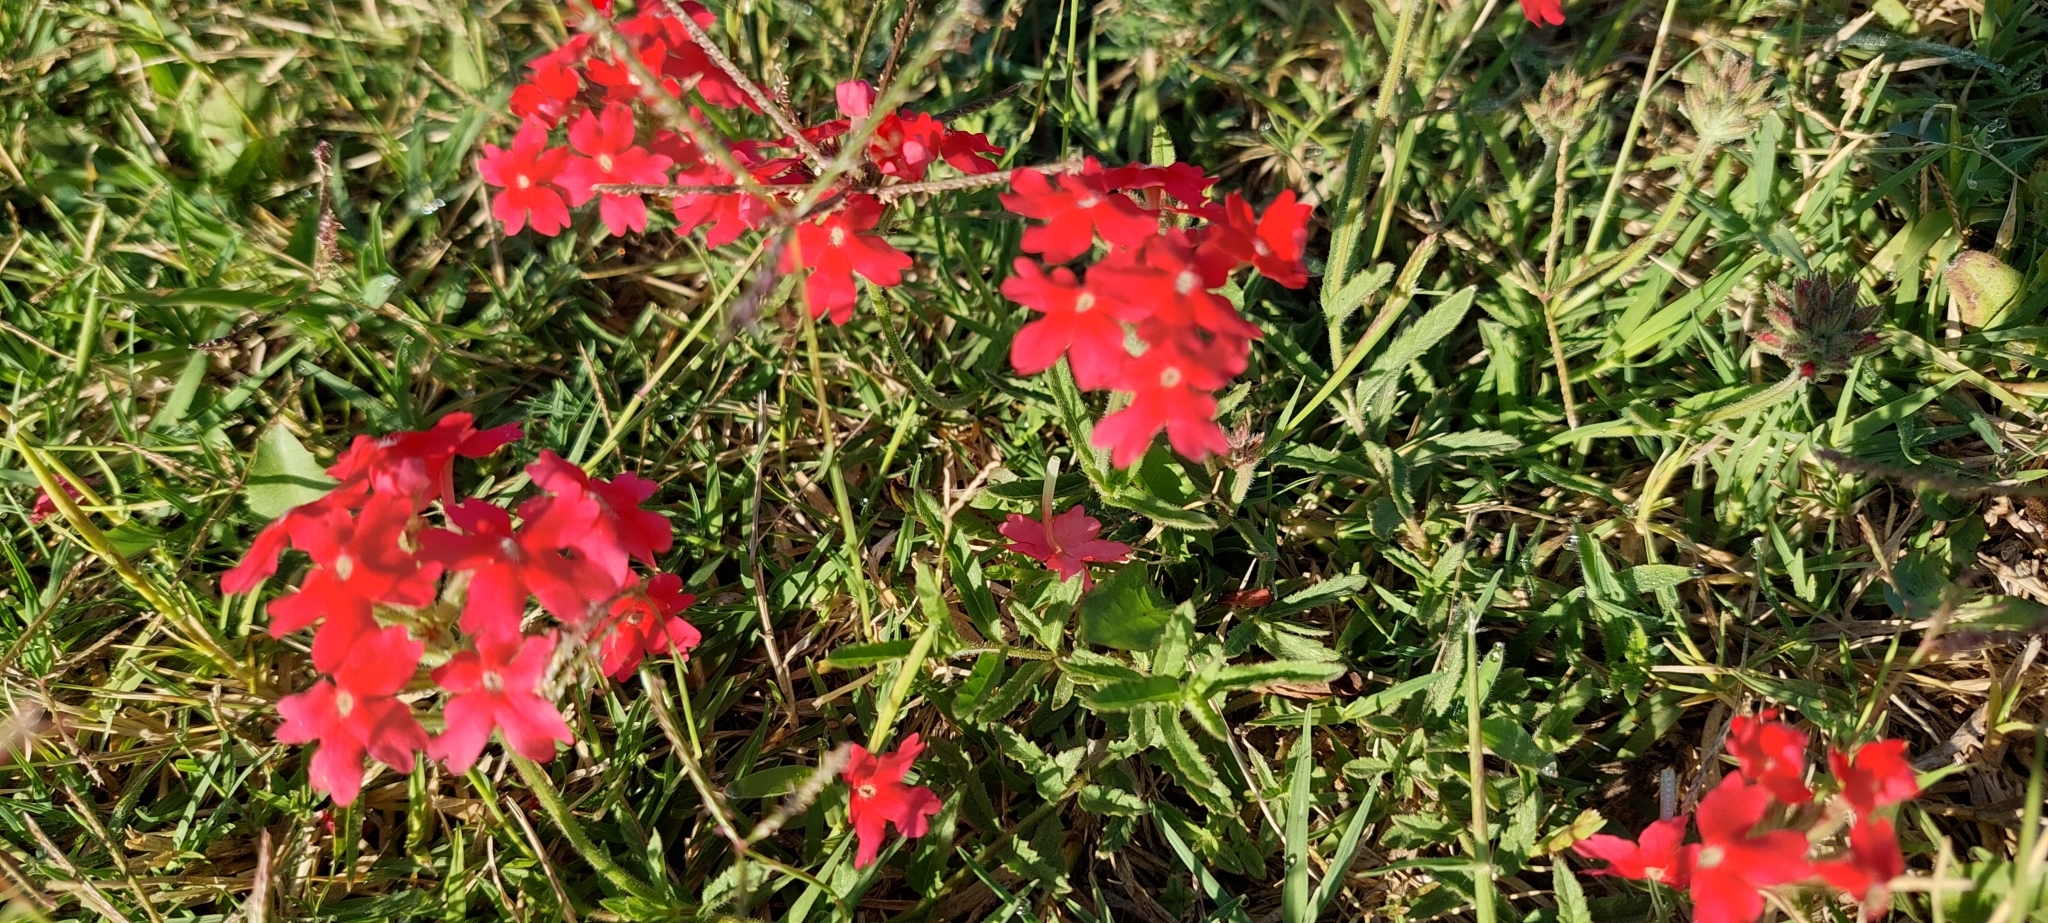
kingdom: Plantae
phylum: Tracheophyta
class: Magnoliopsida
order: Lamiales
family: Verbenaceae
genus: Verbena
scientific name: Verbena peruviana
